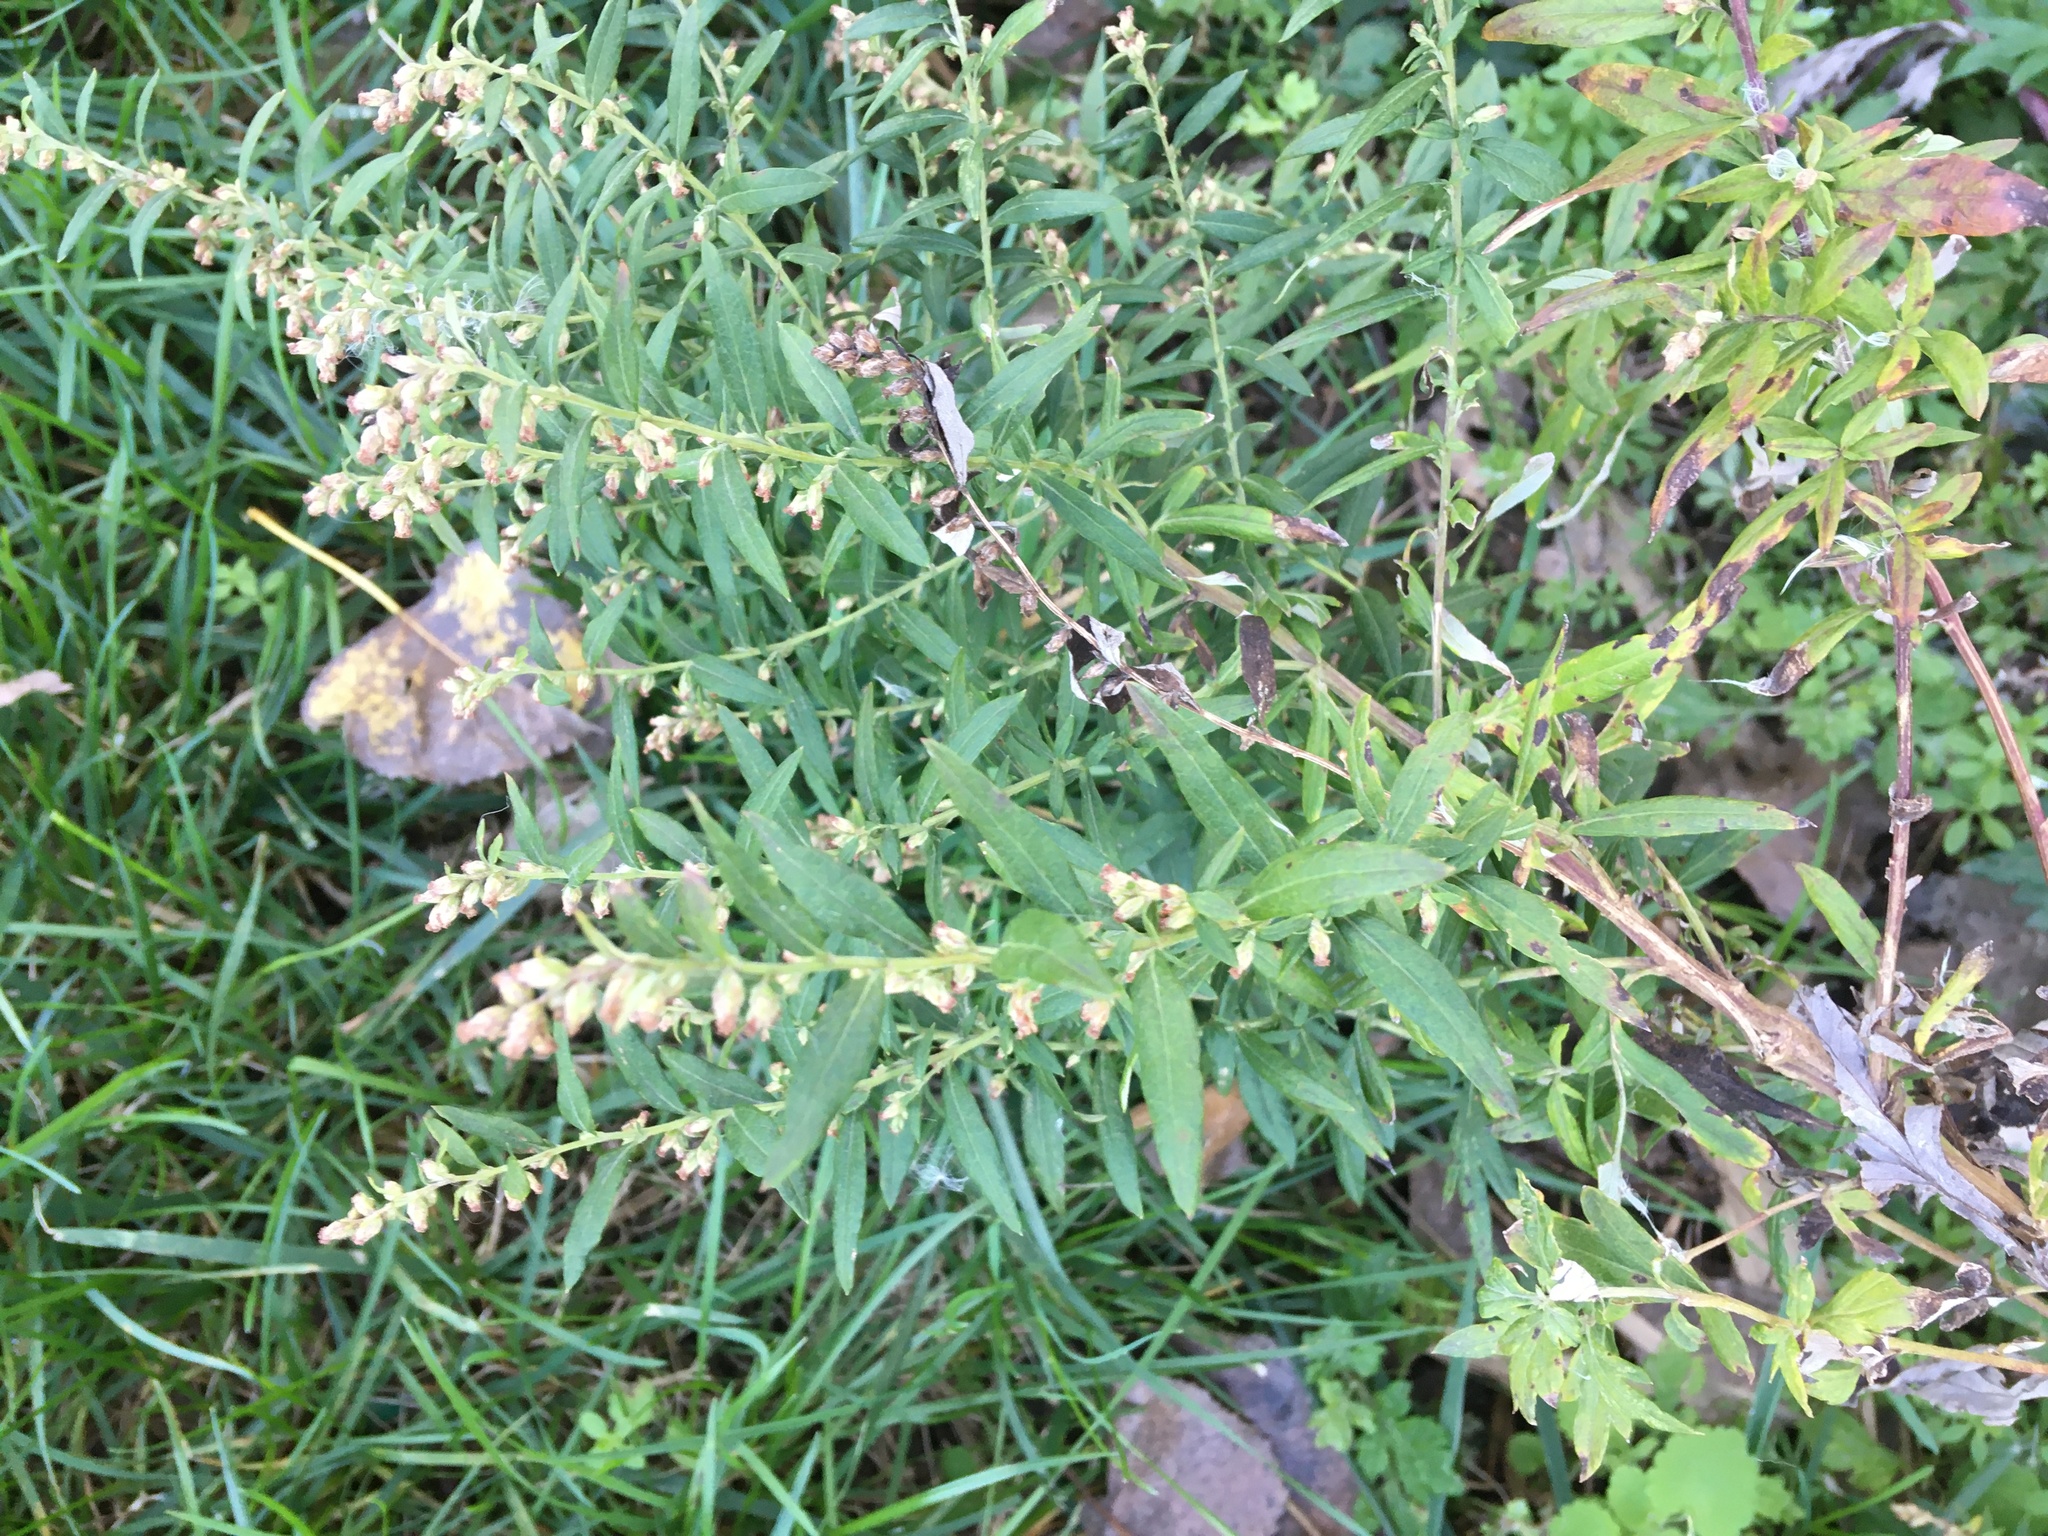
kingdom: Plantae
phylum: Tracheophyta
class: Magnoliopsida
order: Asterales
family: Asteraceae
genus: Artemisia
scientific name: Artemisia vulgaris
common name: Mugwort
